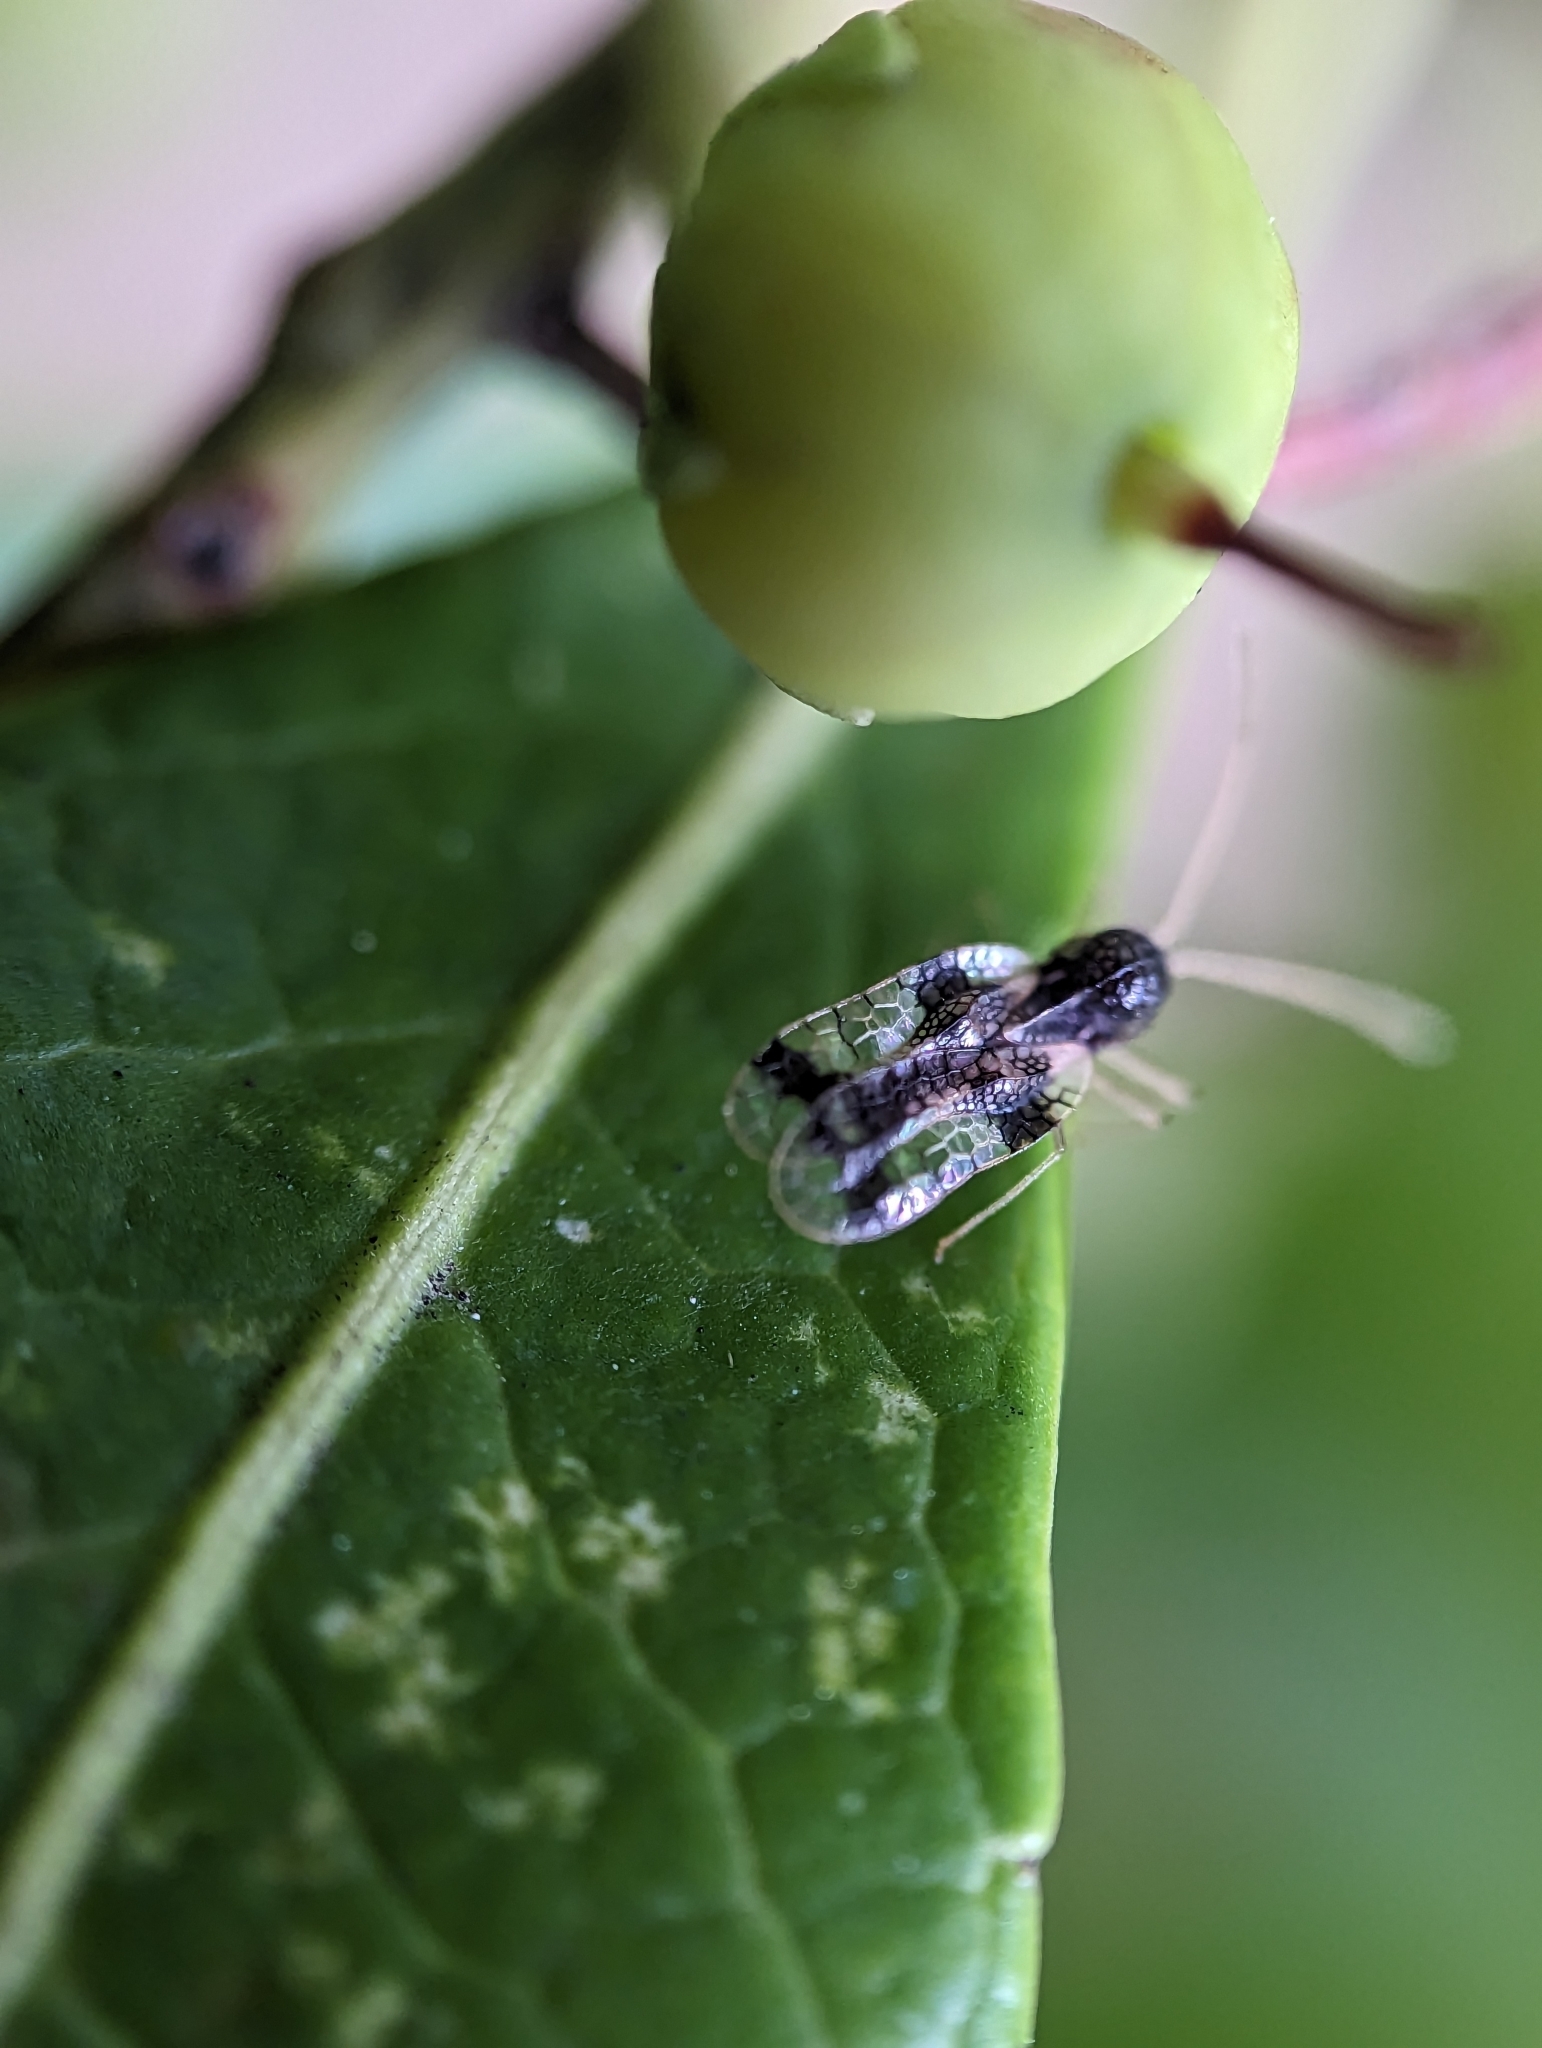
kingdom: Animalia
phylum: Arthropoda
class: Insecta
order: Hemiptera
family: Tingidae
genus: Stephanitis
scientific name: Stephanitis takeyai
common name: Andromeda lacebug
